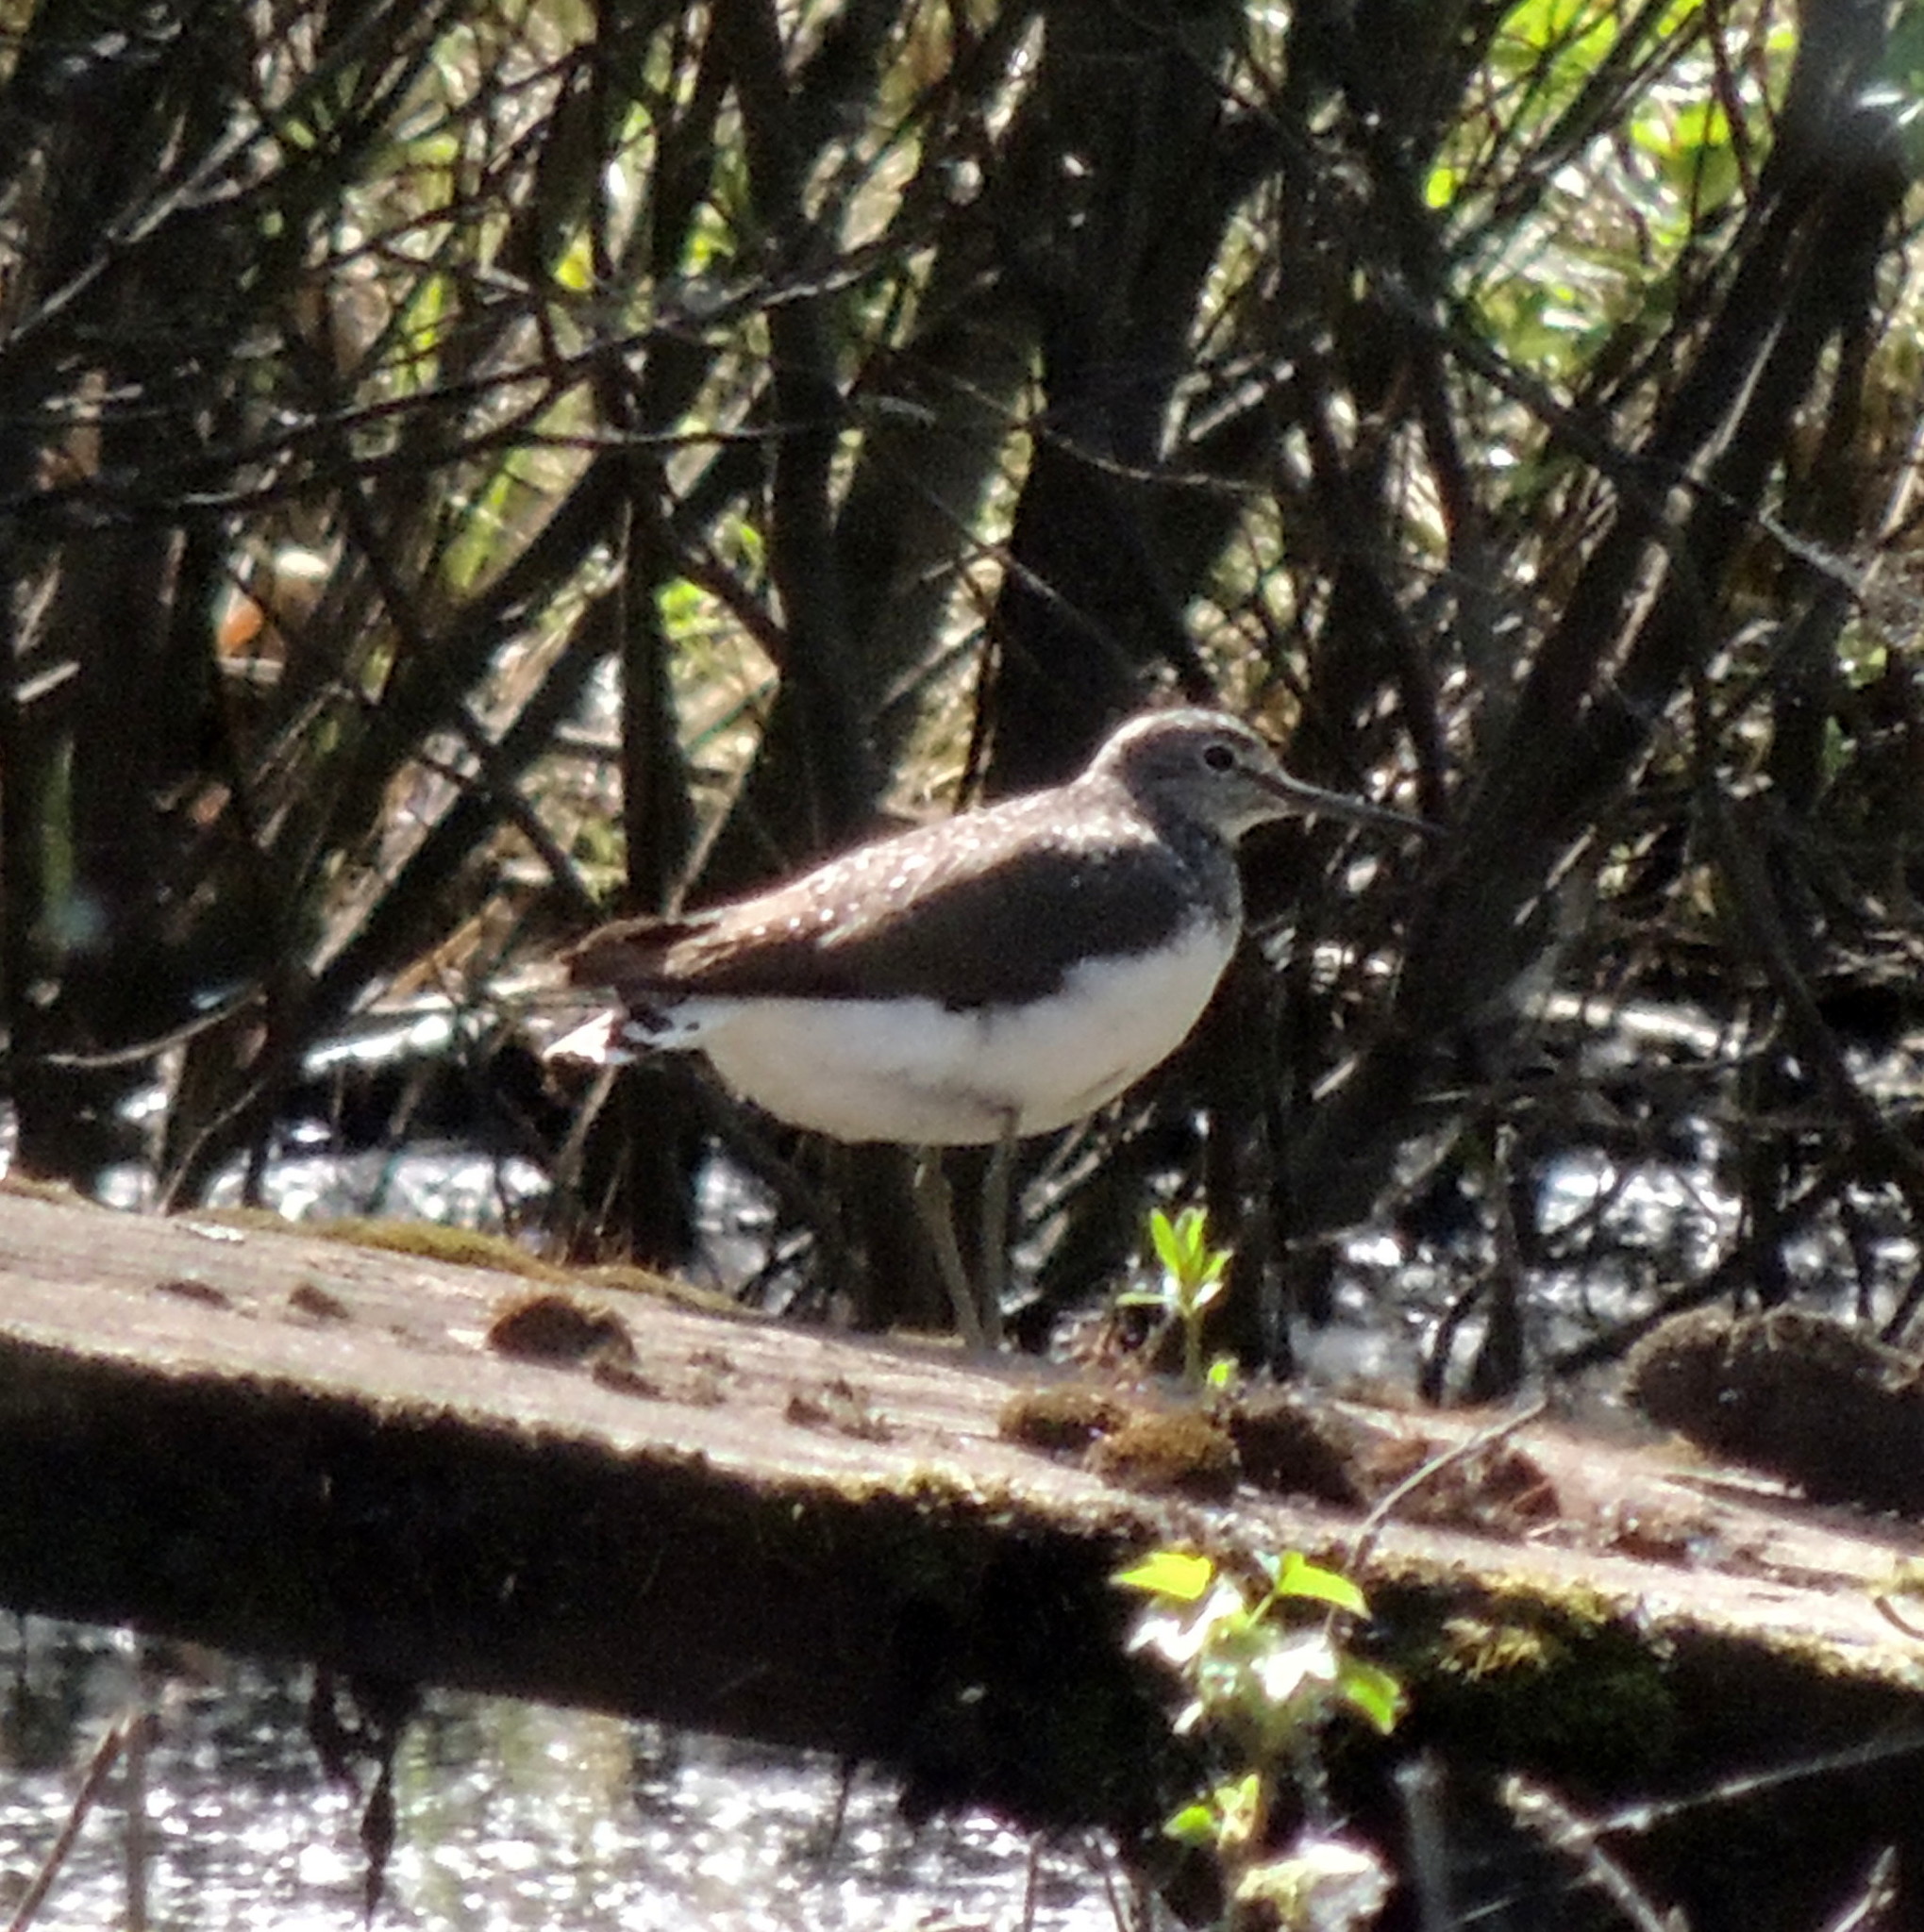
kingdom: Animalia
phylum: Chordata
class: Aves
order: Charadriiformes
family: Scolopacidae
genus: Tringa
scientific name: Tringa ochropus
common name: Green sandpiper
